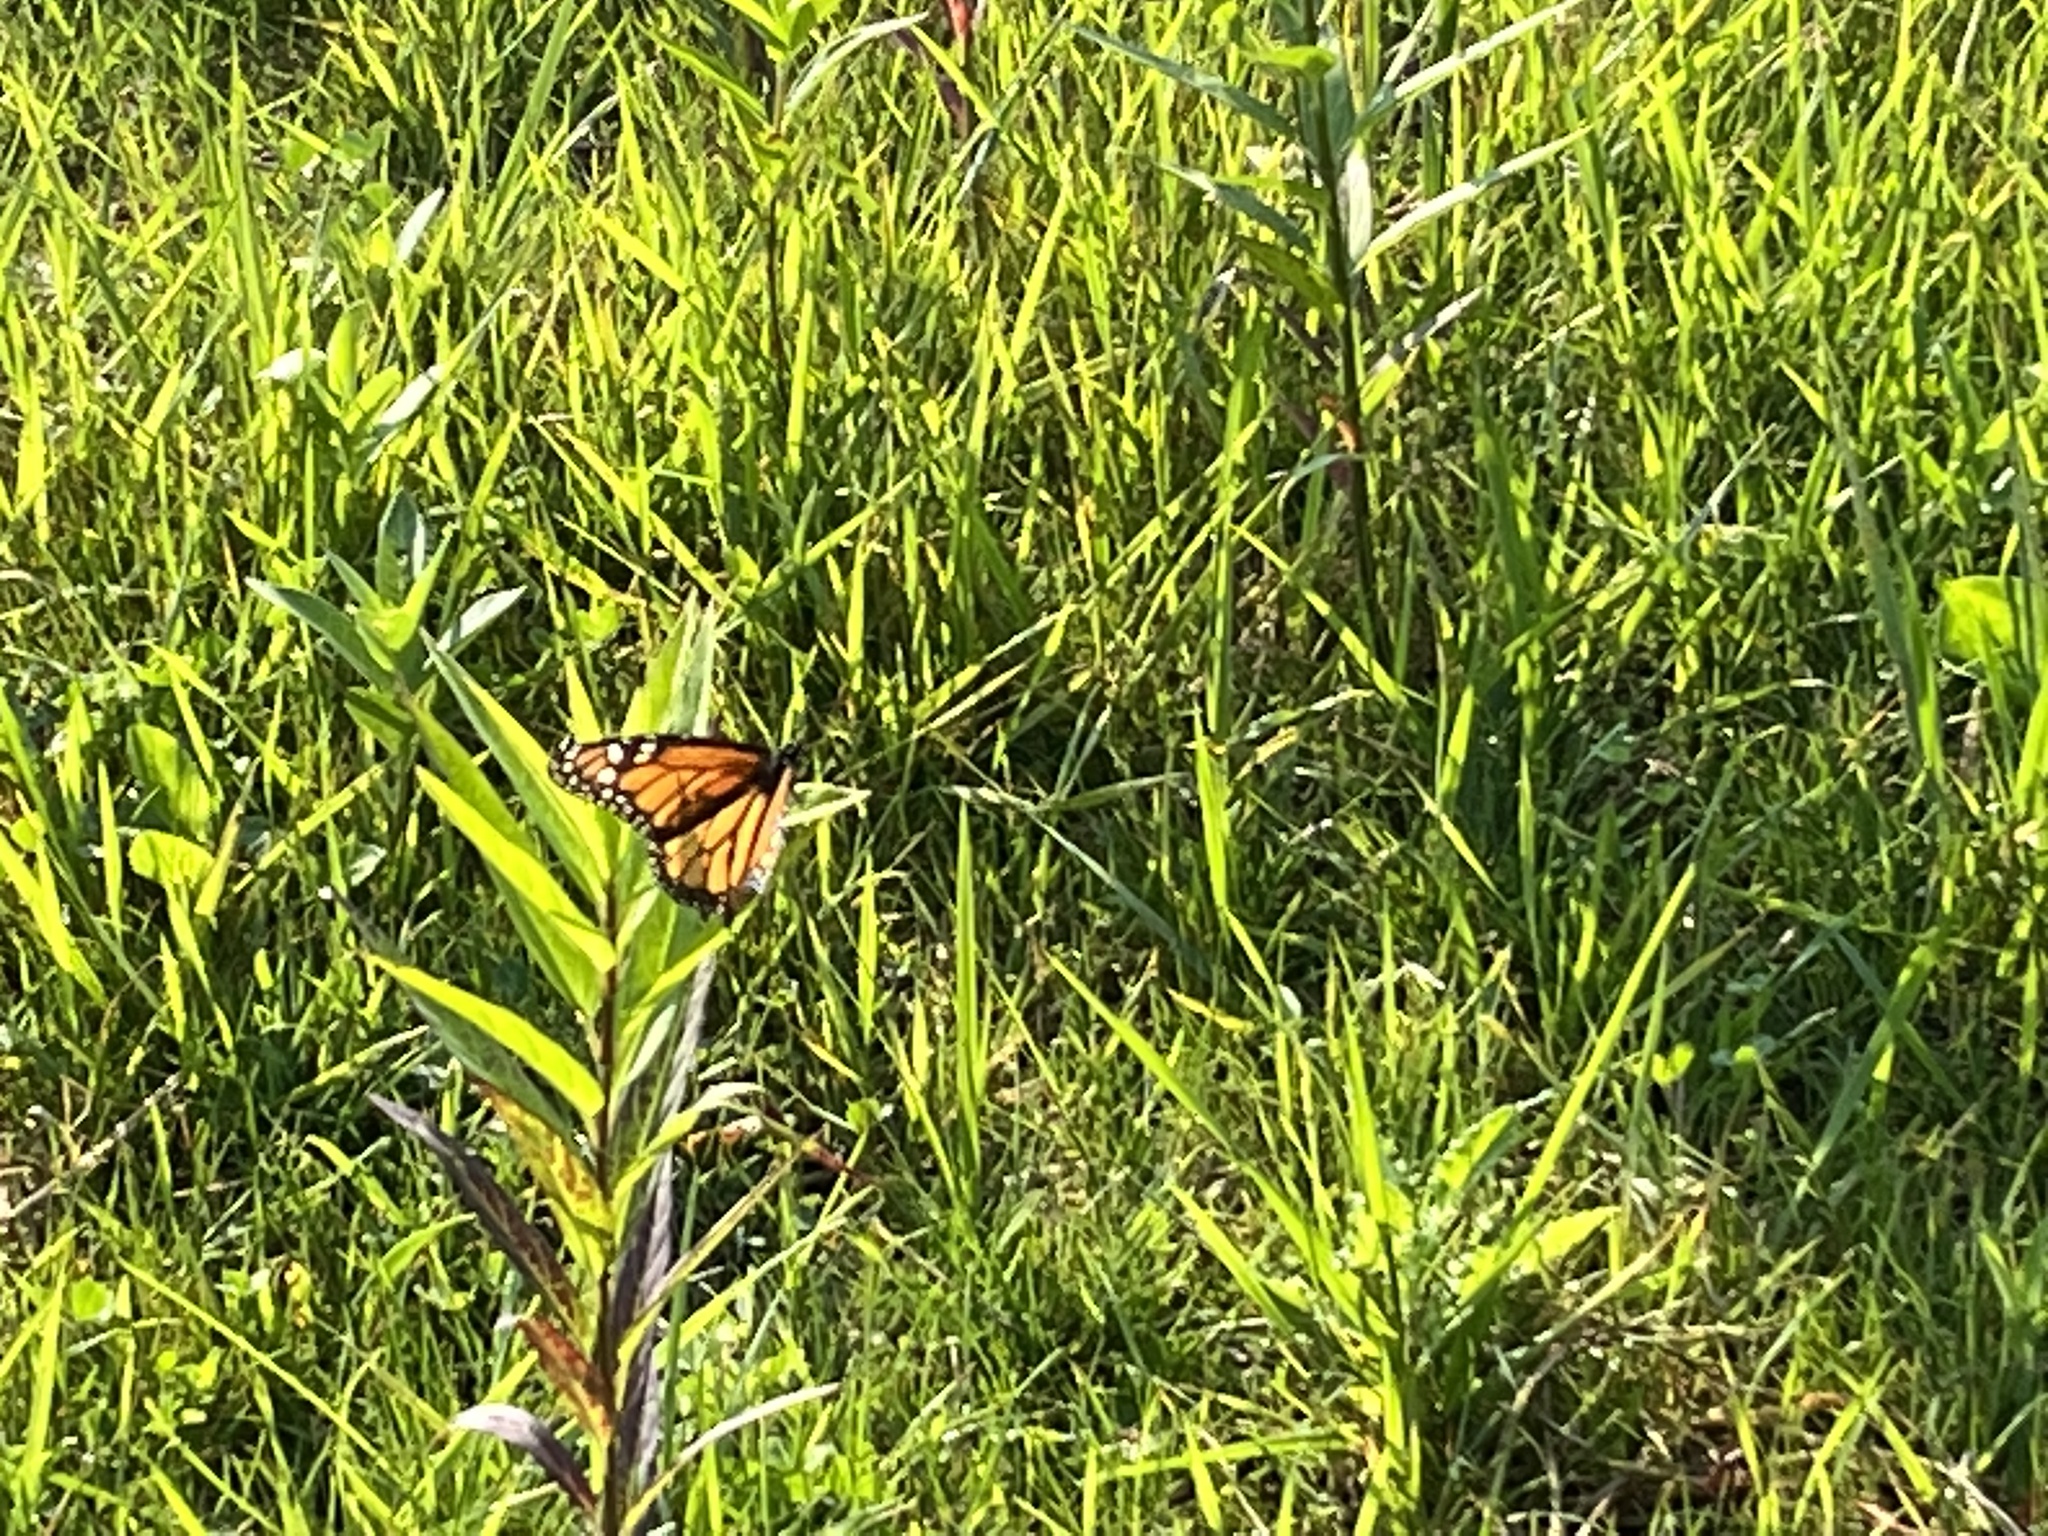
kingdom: Animalia
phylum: Arthropoda
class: Insecta
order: Lepidoptera
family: Nymphalidae
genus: Danaus
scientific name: Danaus plexippus
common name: Monarch
